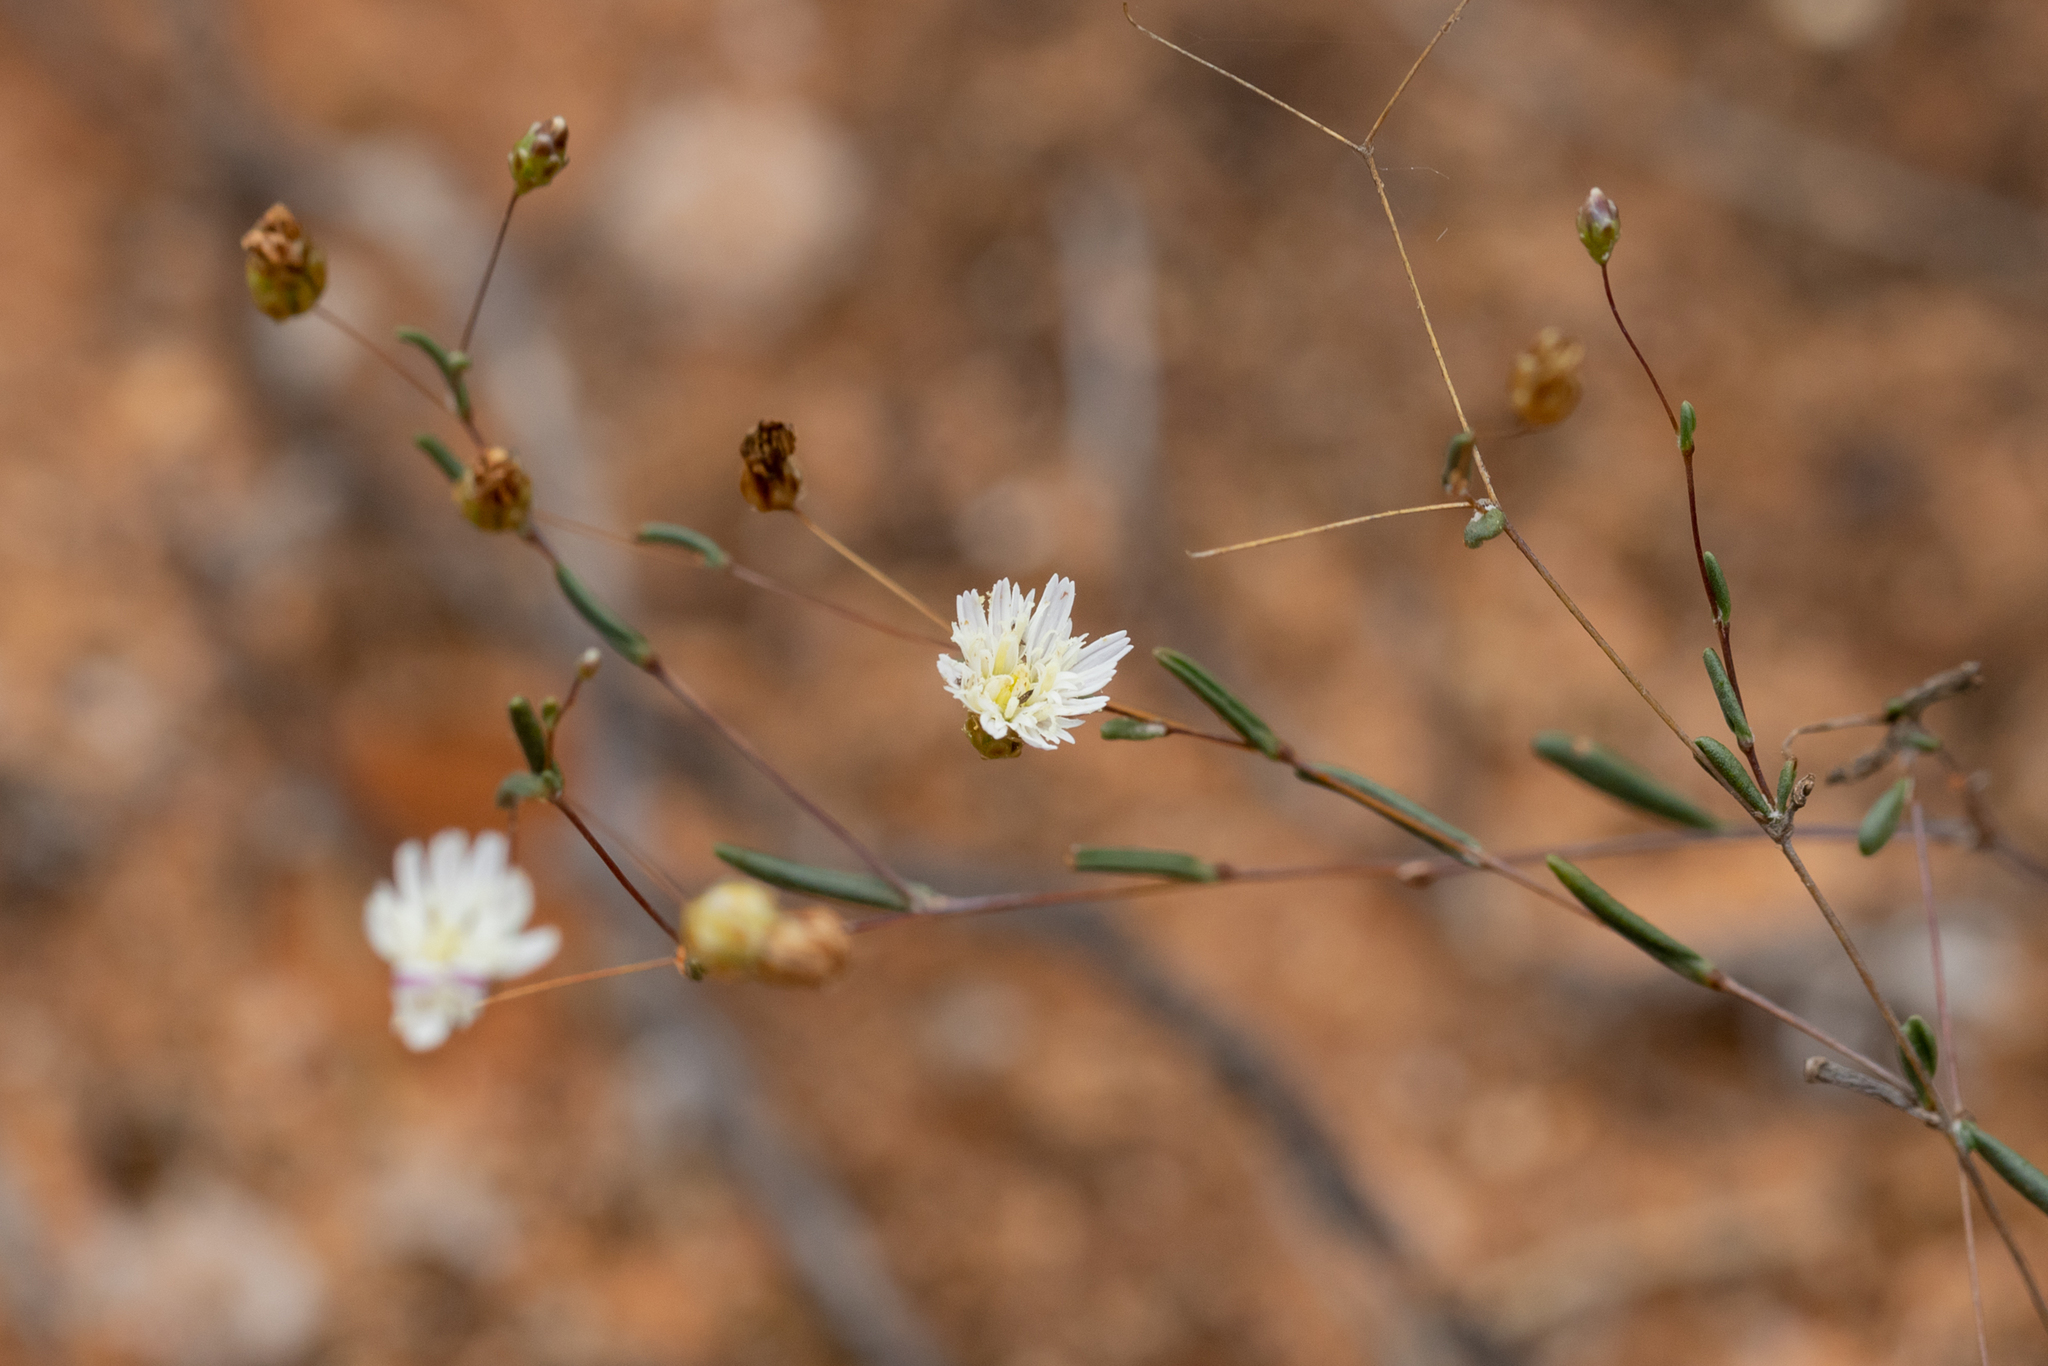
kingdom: Plantae
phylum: Tracheophyta
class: Magnoliopsida
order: Asterales
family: Asteraceae
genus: Siemssenia
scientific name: Siemssenia capillaris
